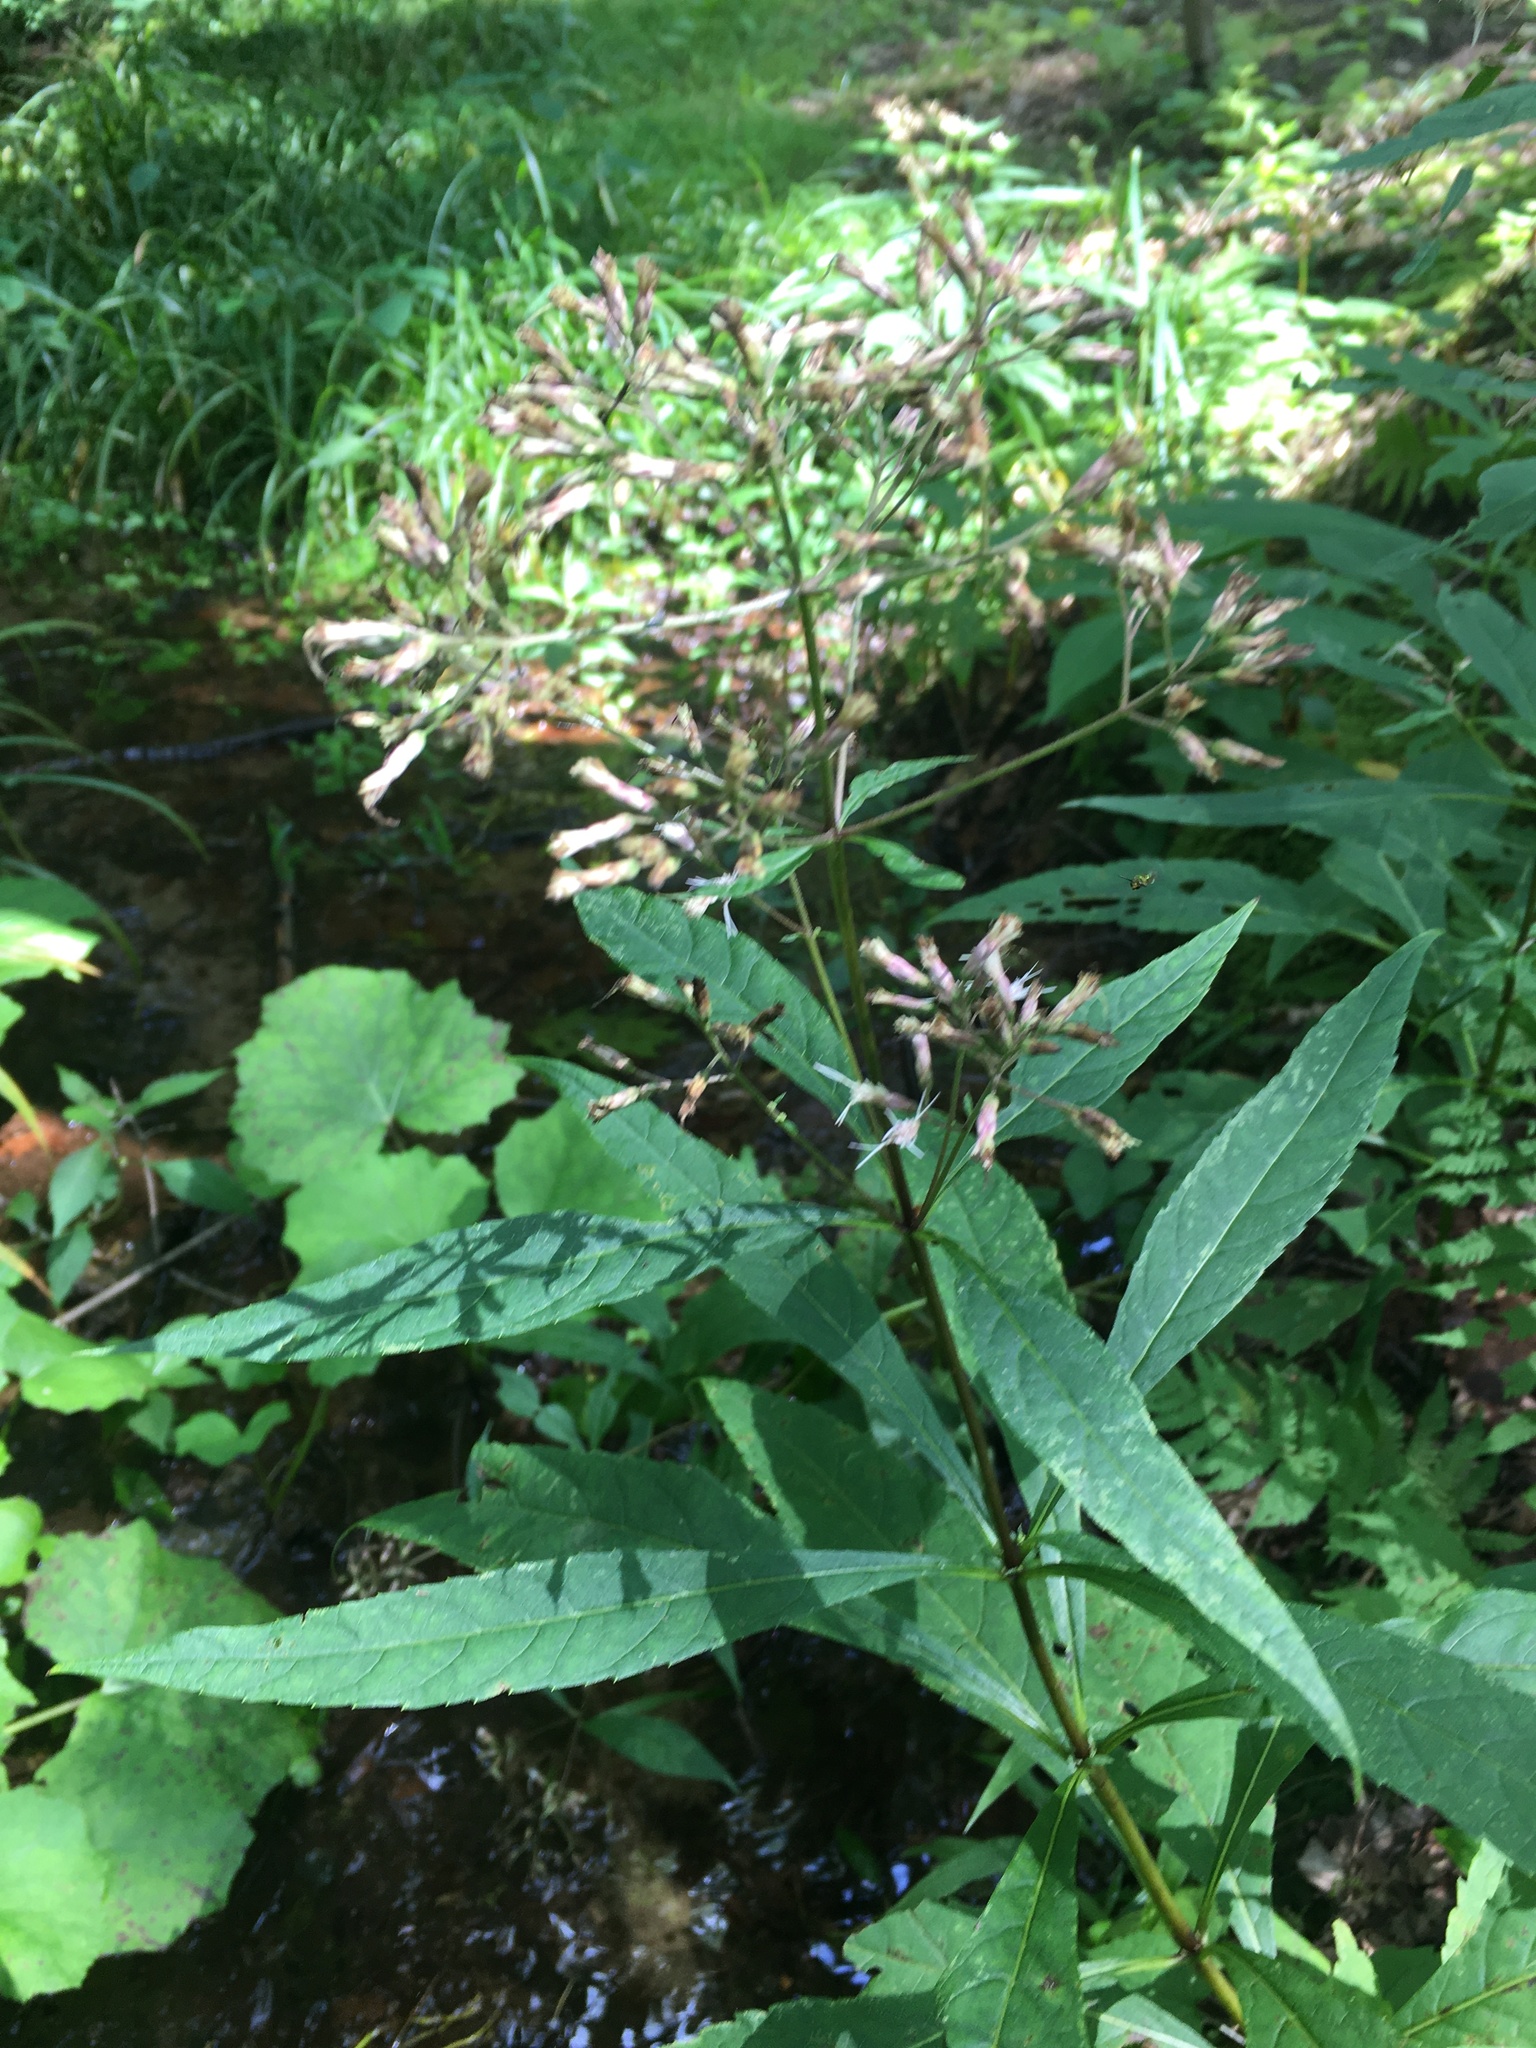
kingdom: Plantae
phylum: Tracheophyta
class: Magnoliopsida
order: Asterales
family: Asteraceae
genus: Eutrochium
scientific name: Eutrochium purpureum
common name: Gravelroot
